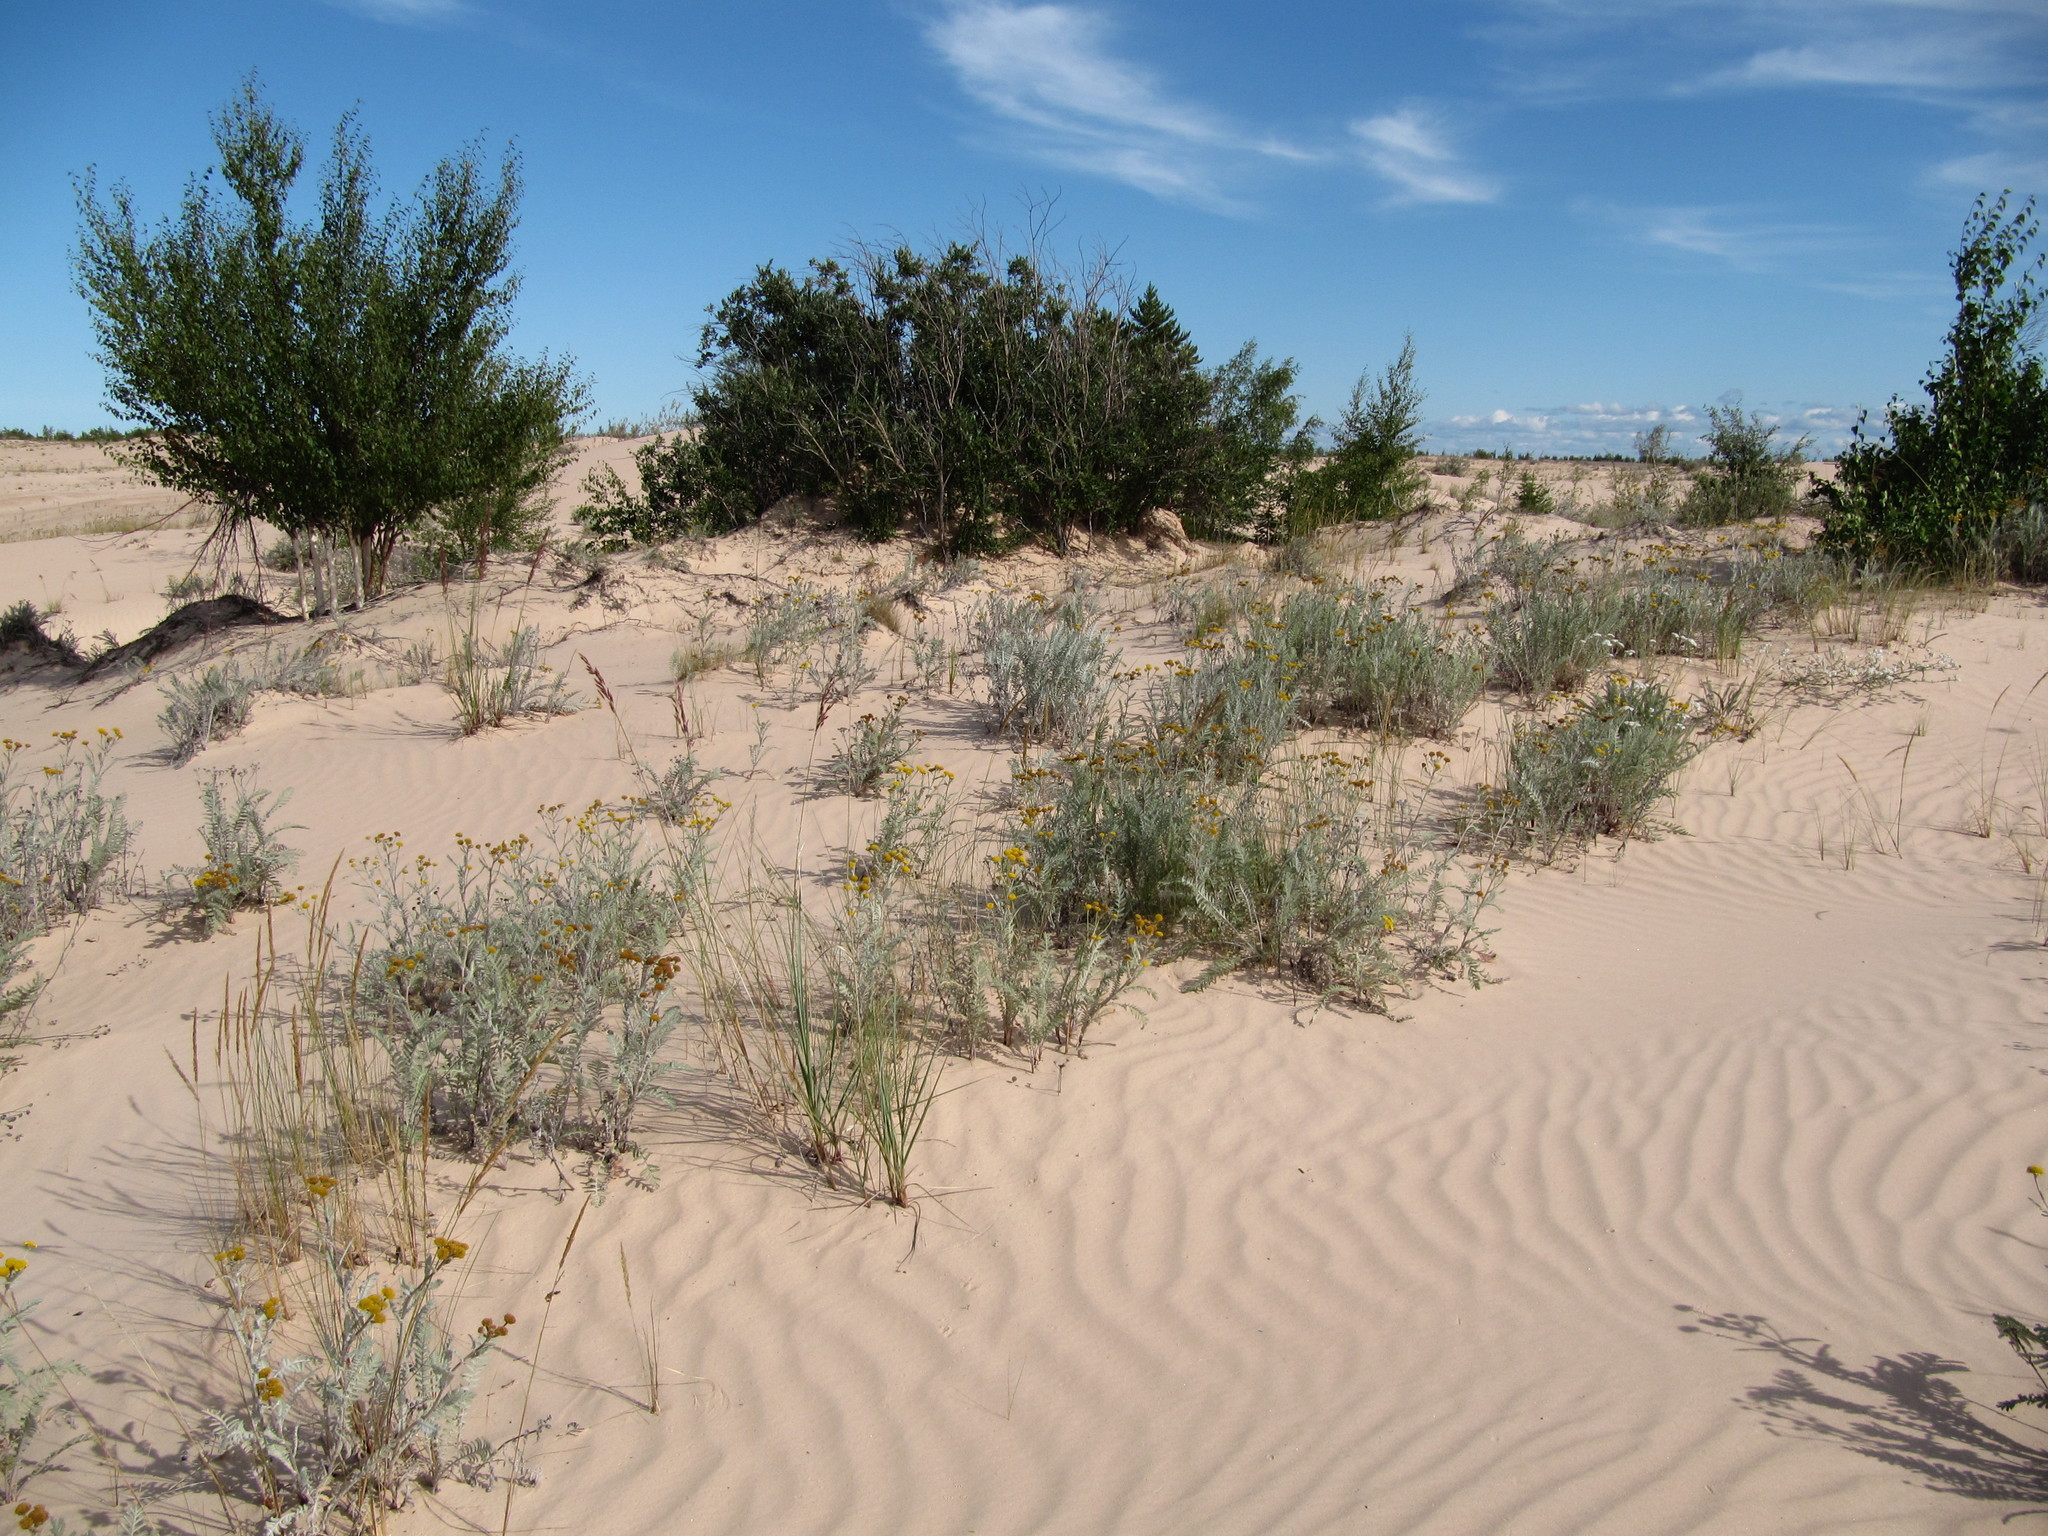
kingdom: Plantae
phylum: Tracheophyta
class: Magnoliopsida
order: Asterales
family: Asteraceae
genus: Tanacetum
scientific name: Tanacetum bipinnatum
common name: Dwarf tansy
